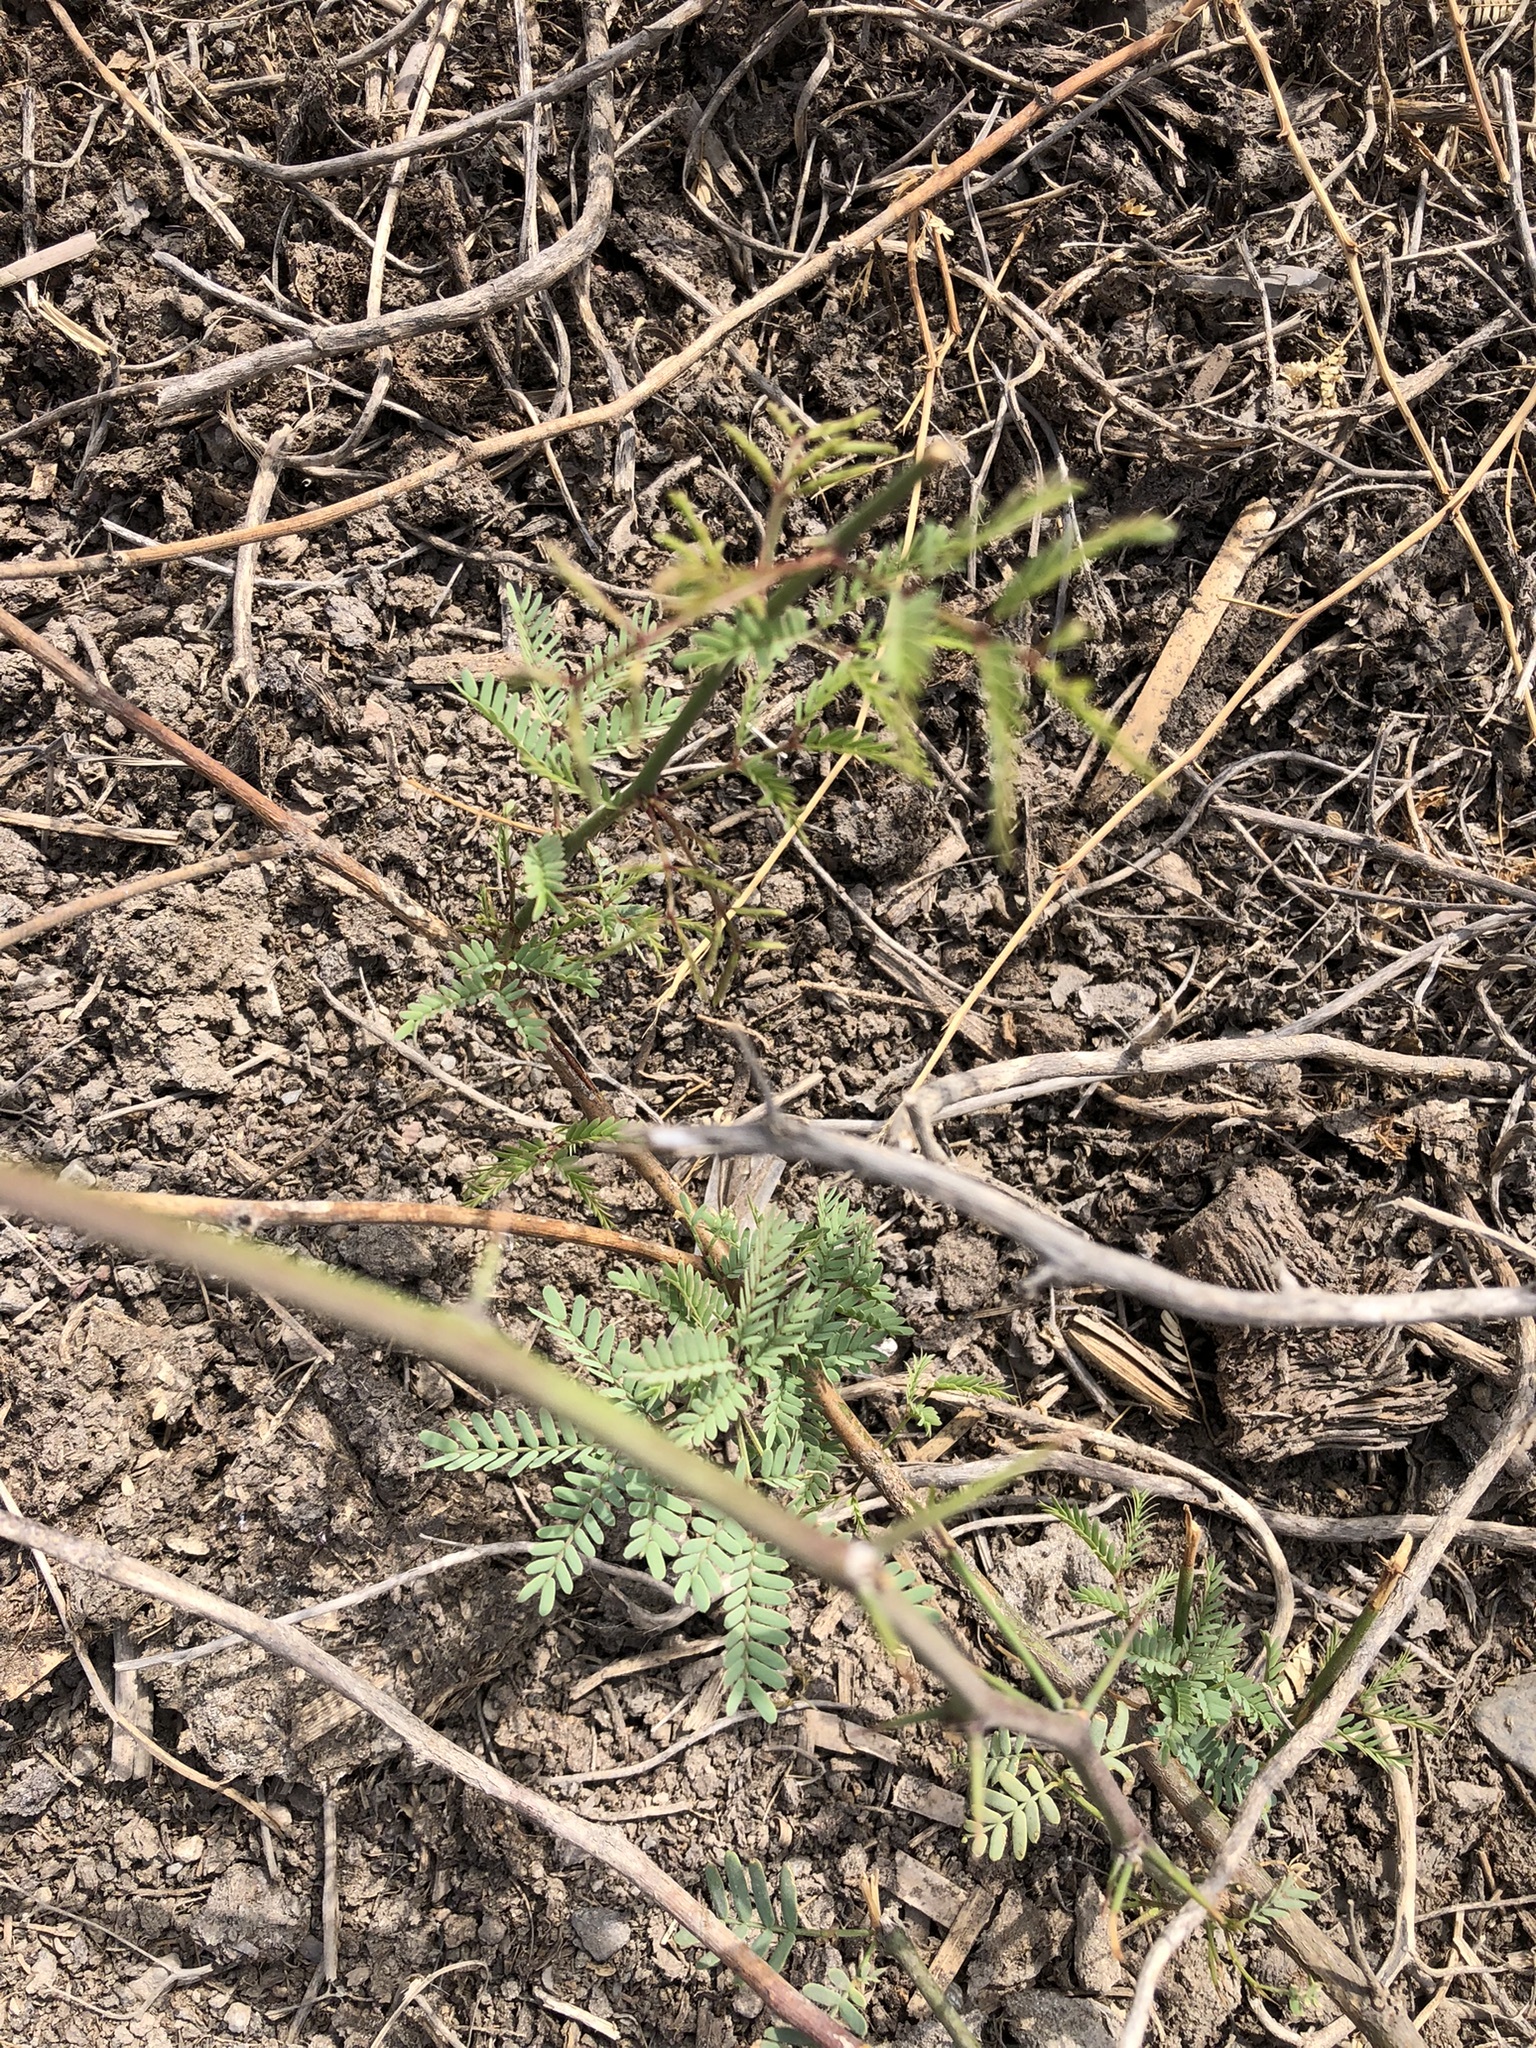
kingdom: Plantae
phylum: Tracheophyta
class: Magnoliopsida
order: Fabales
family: Fabaceae
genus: Prosopis
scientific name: Prosopis limensis
